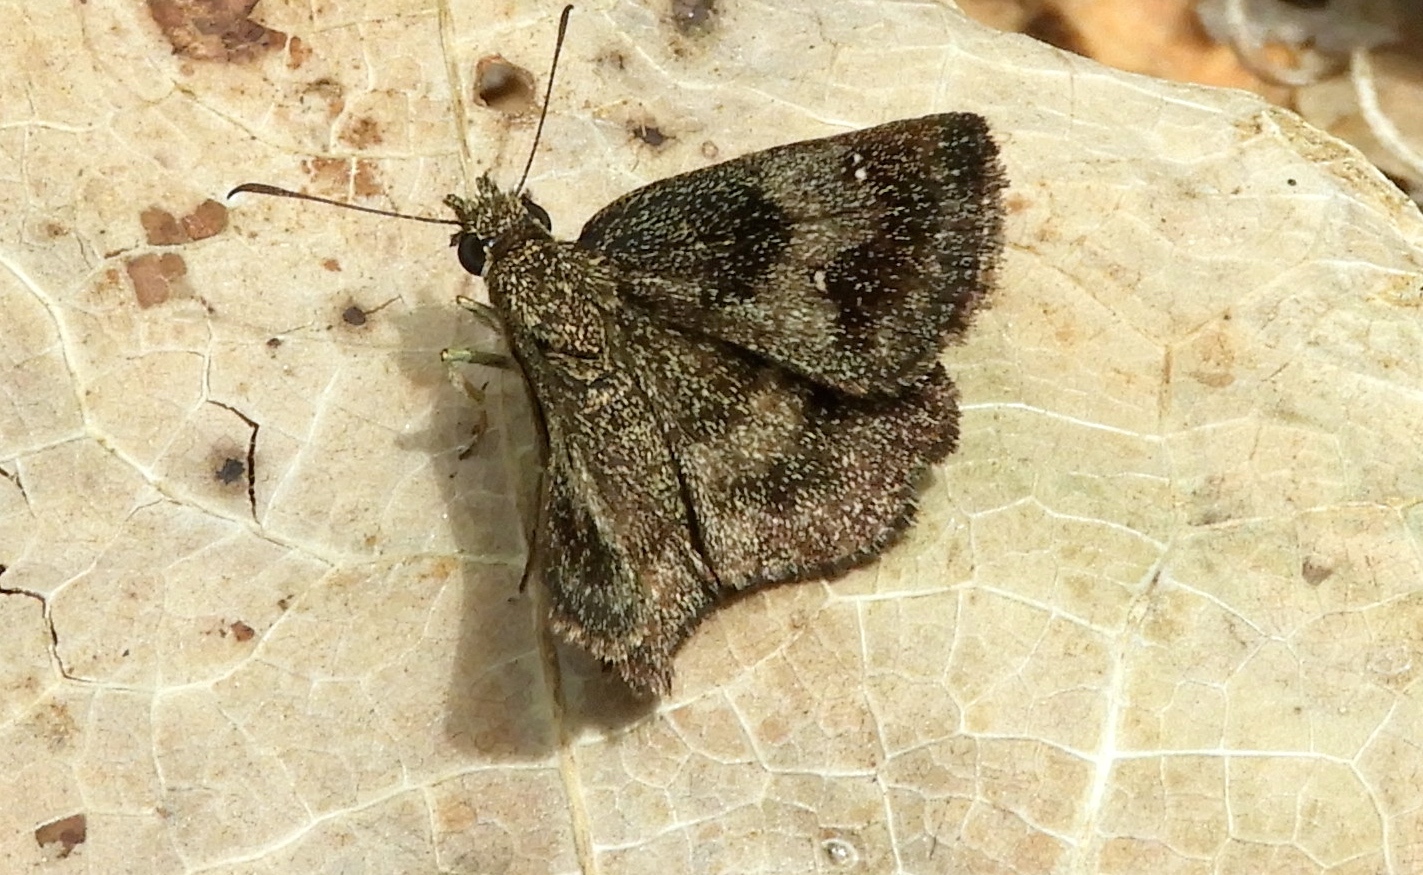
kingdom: Animalia
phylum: Arthropoda
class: Insecta
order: Lepidoptera
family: Hesperiidae
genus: Staphylus
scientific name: Staphylus mazans
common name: Mazans scallopwing
